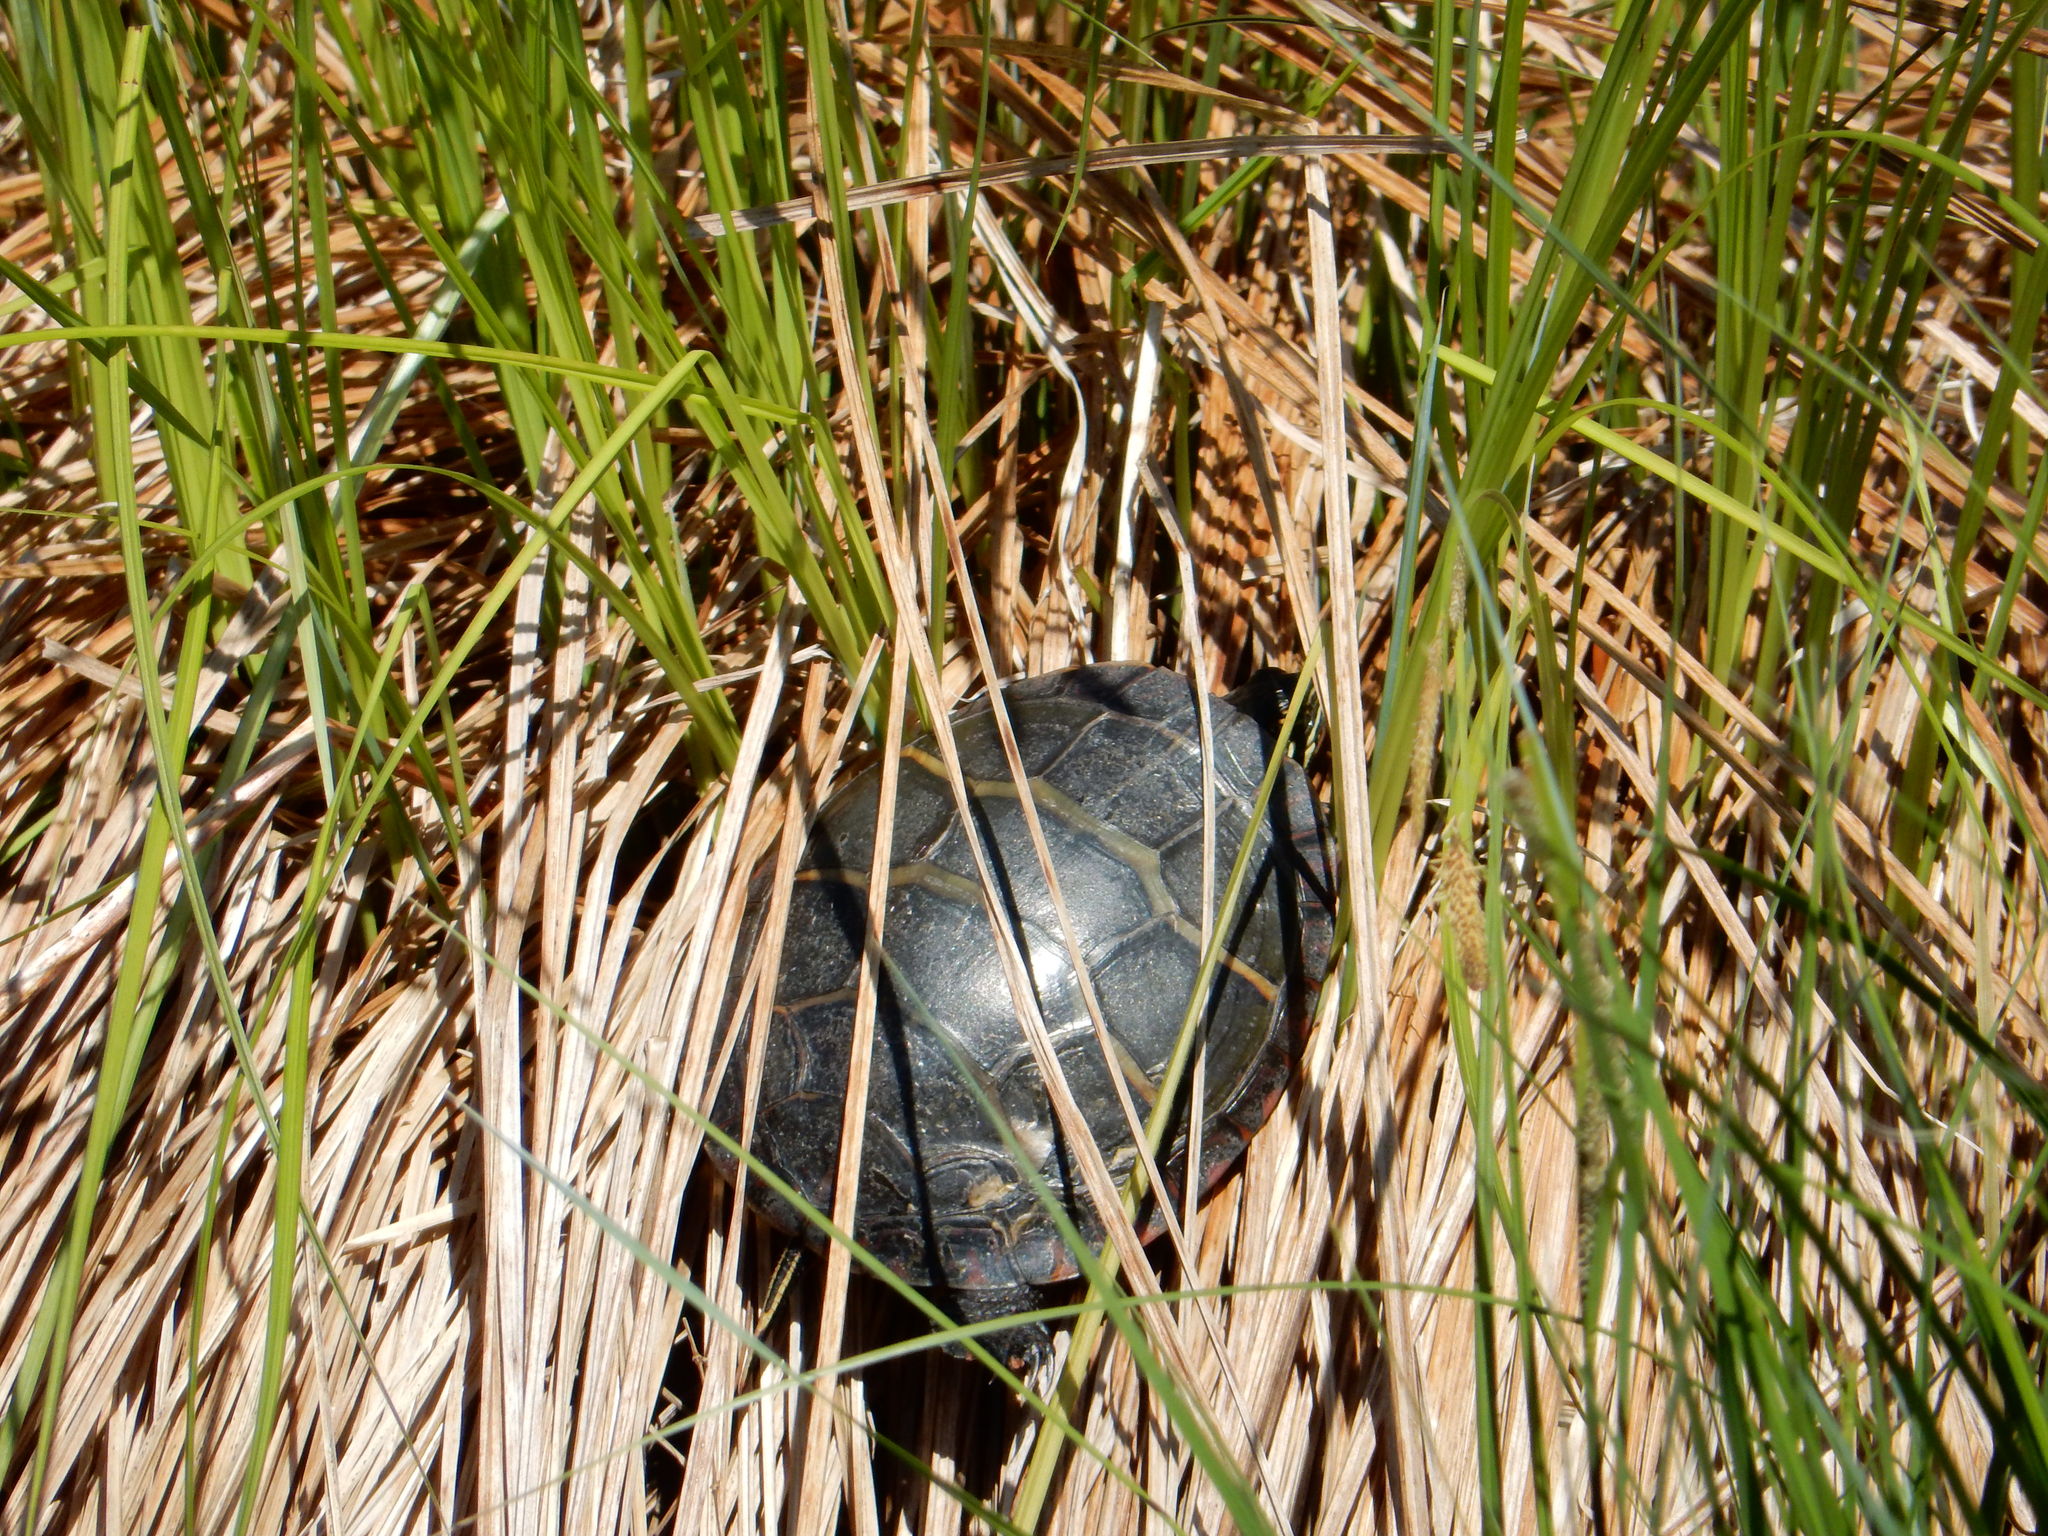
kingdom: Animalia
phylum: Chordata
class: Testudines
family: Emydidae
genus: Chrysemys
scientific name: Chrysemys picta
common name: Painted turtle
